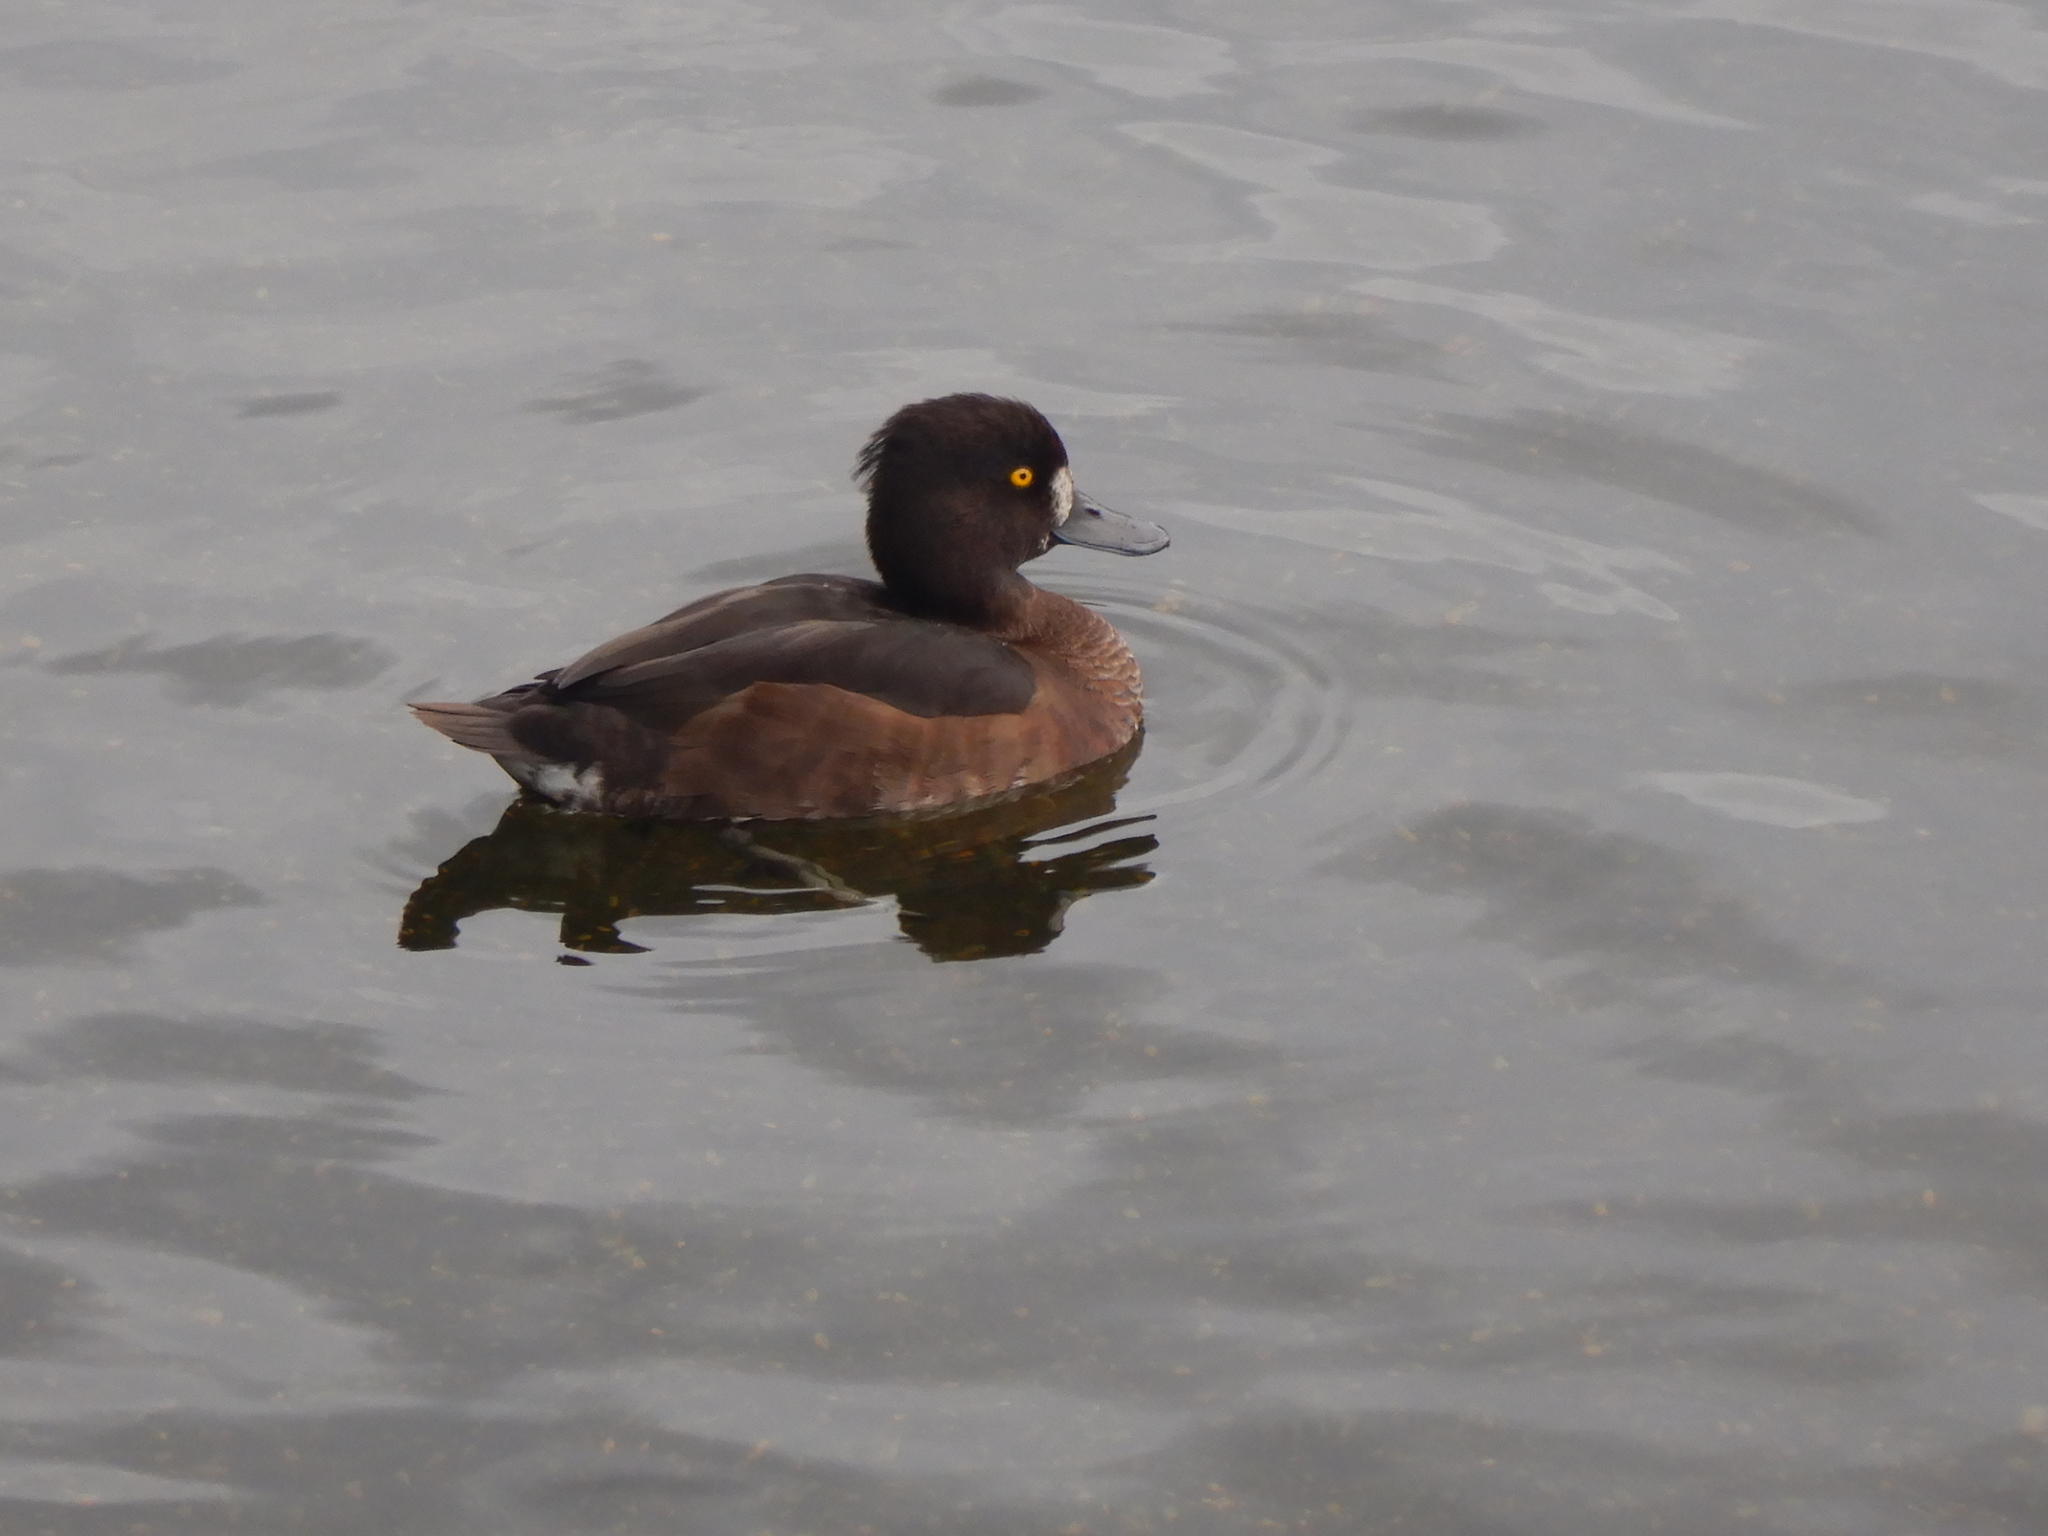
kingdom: Animalia
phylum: Chordata
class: Aves
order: Anseriformes
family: Anatidae
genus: Aythya
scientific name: Aythya fuligula
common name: Tufted duck
